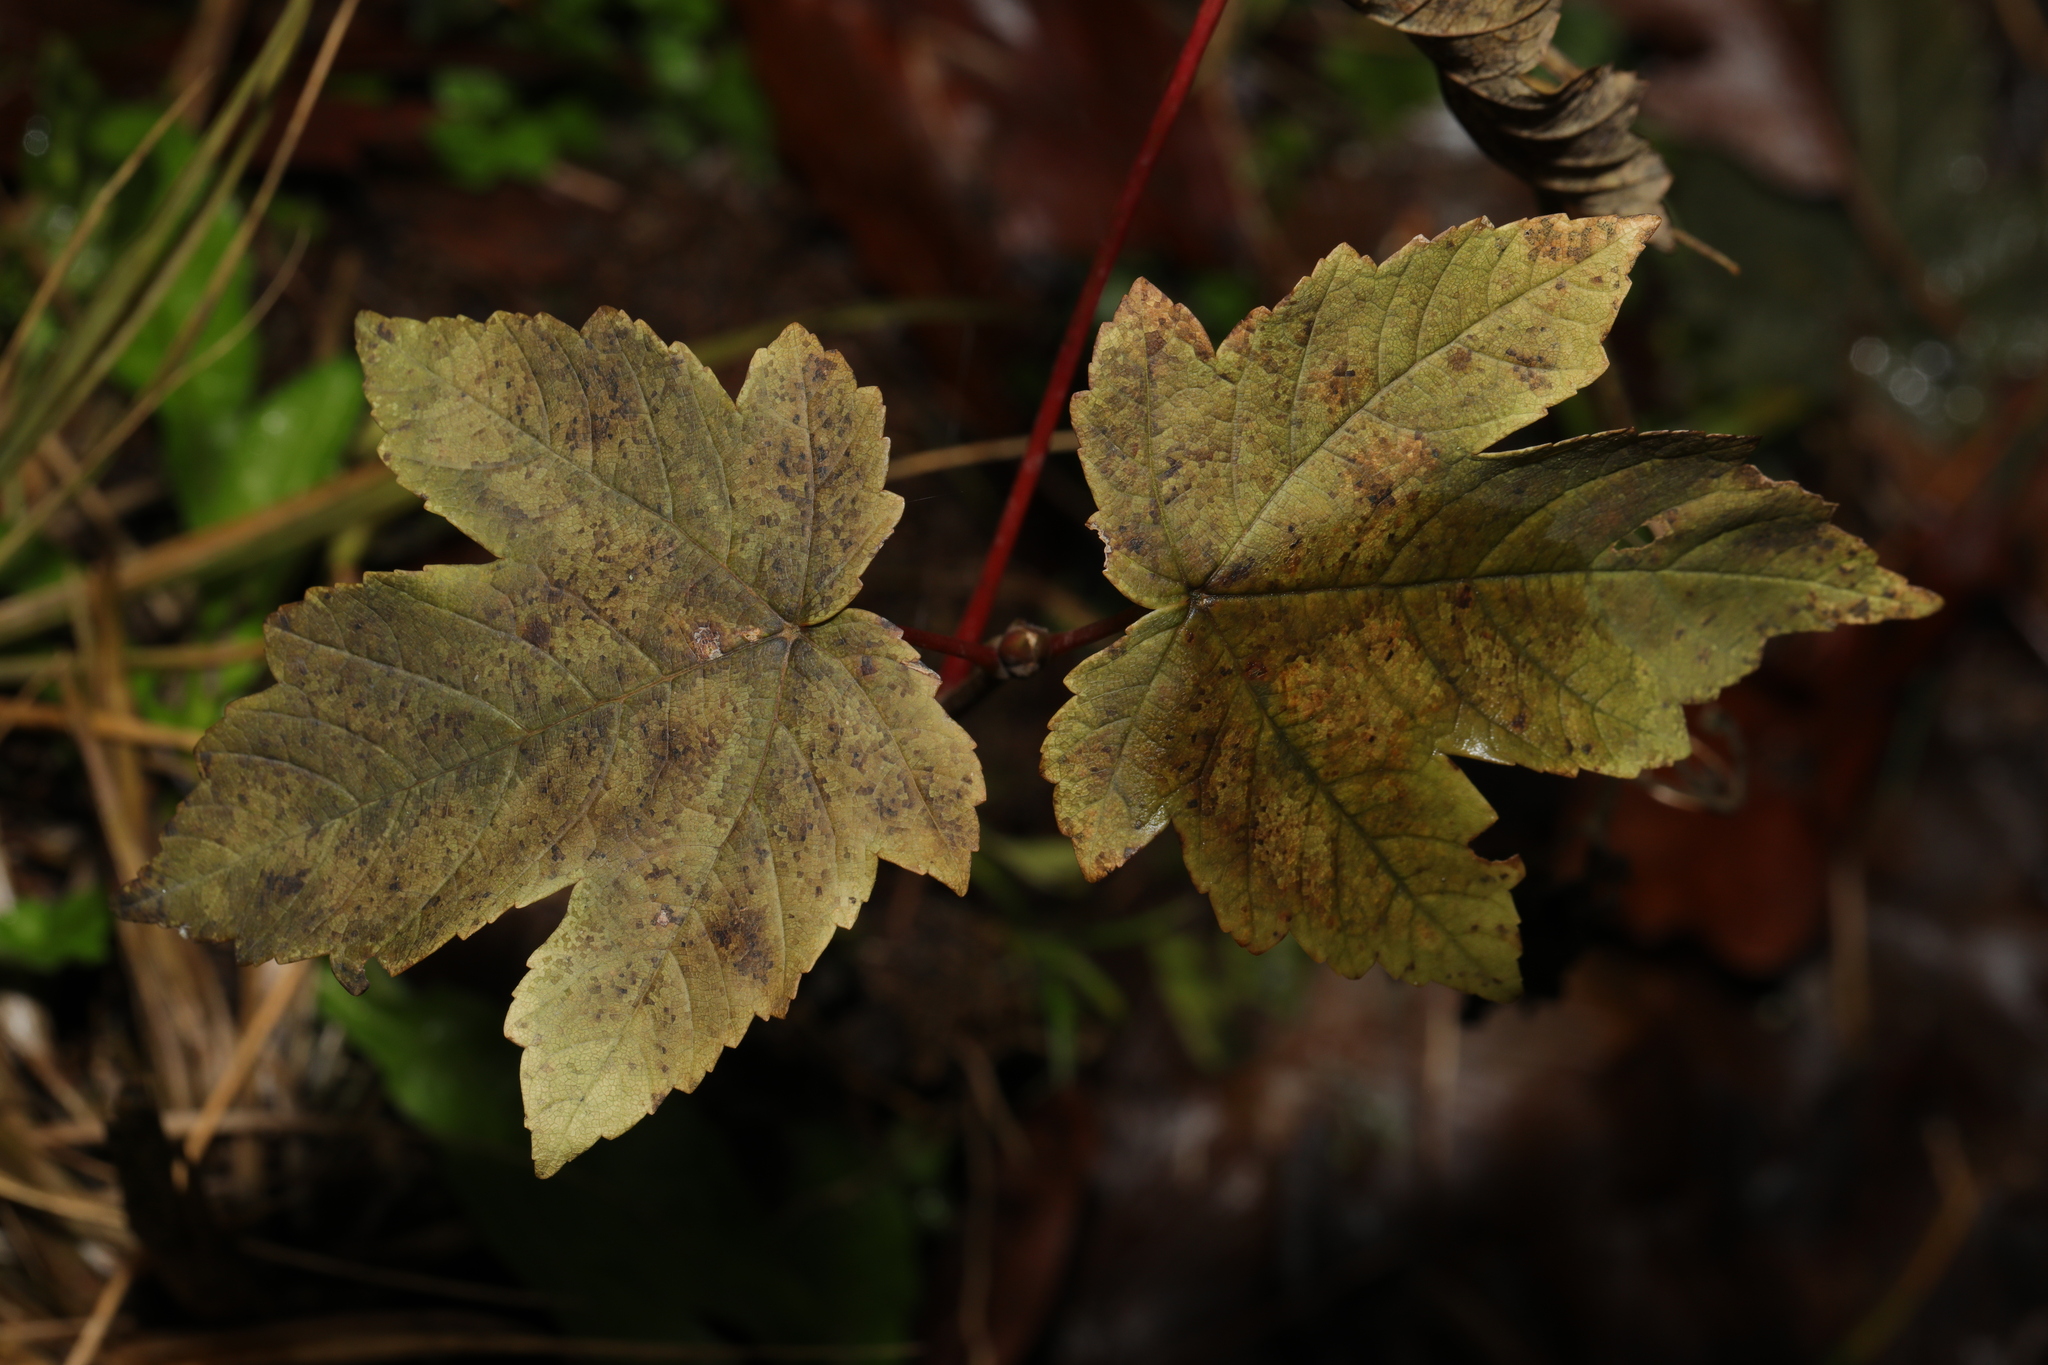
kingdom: Plantae
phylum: Tracheophyta
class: Magnoliopsida
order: Sapindales
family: Sapindaceae
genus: Acer
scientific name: Acer pseudoplatanus
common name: Sycamore
